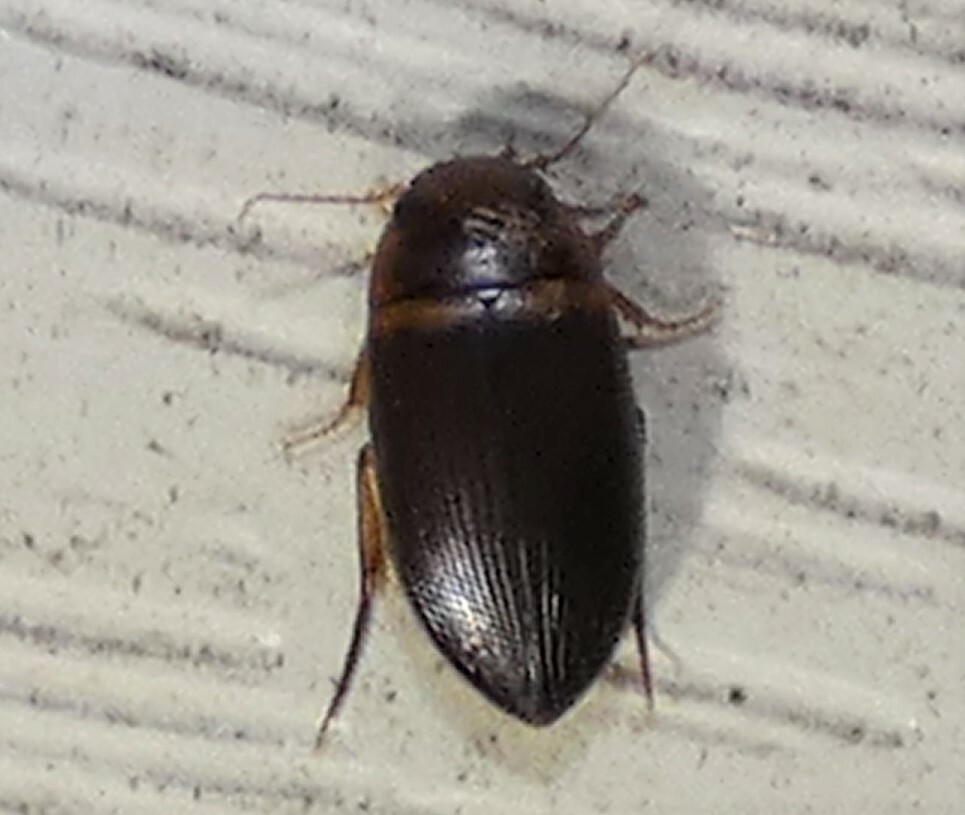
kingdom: Animalia
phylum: Arthropoda
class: Insecta
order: Coleoptera
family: Dytiscidae
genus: Copelatus
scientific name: Copelatus caelatipennis
